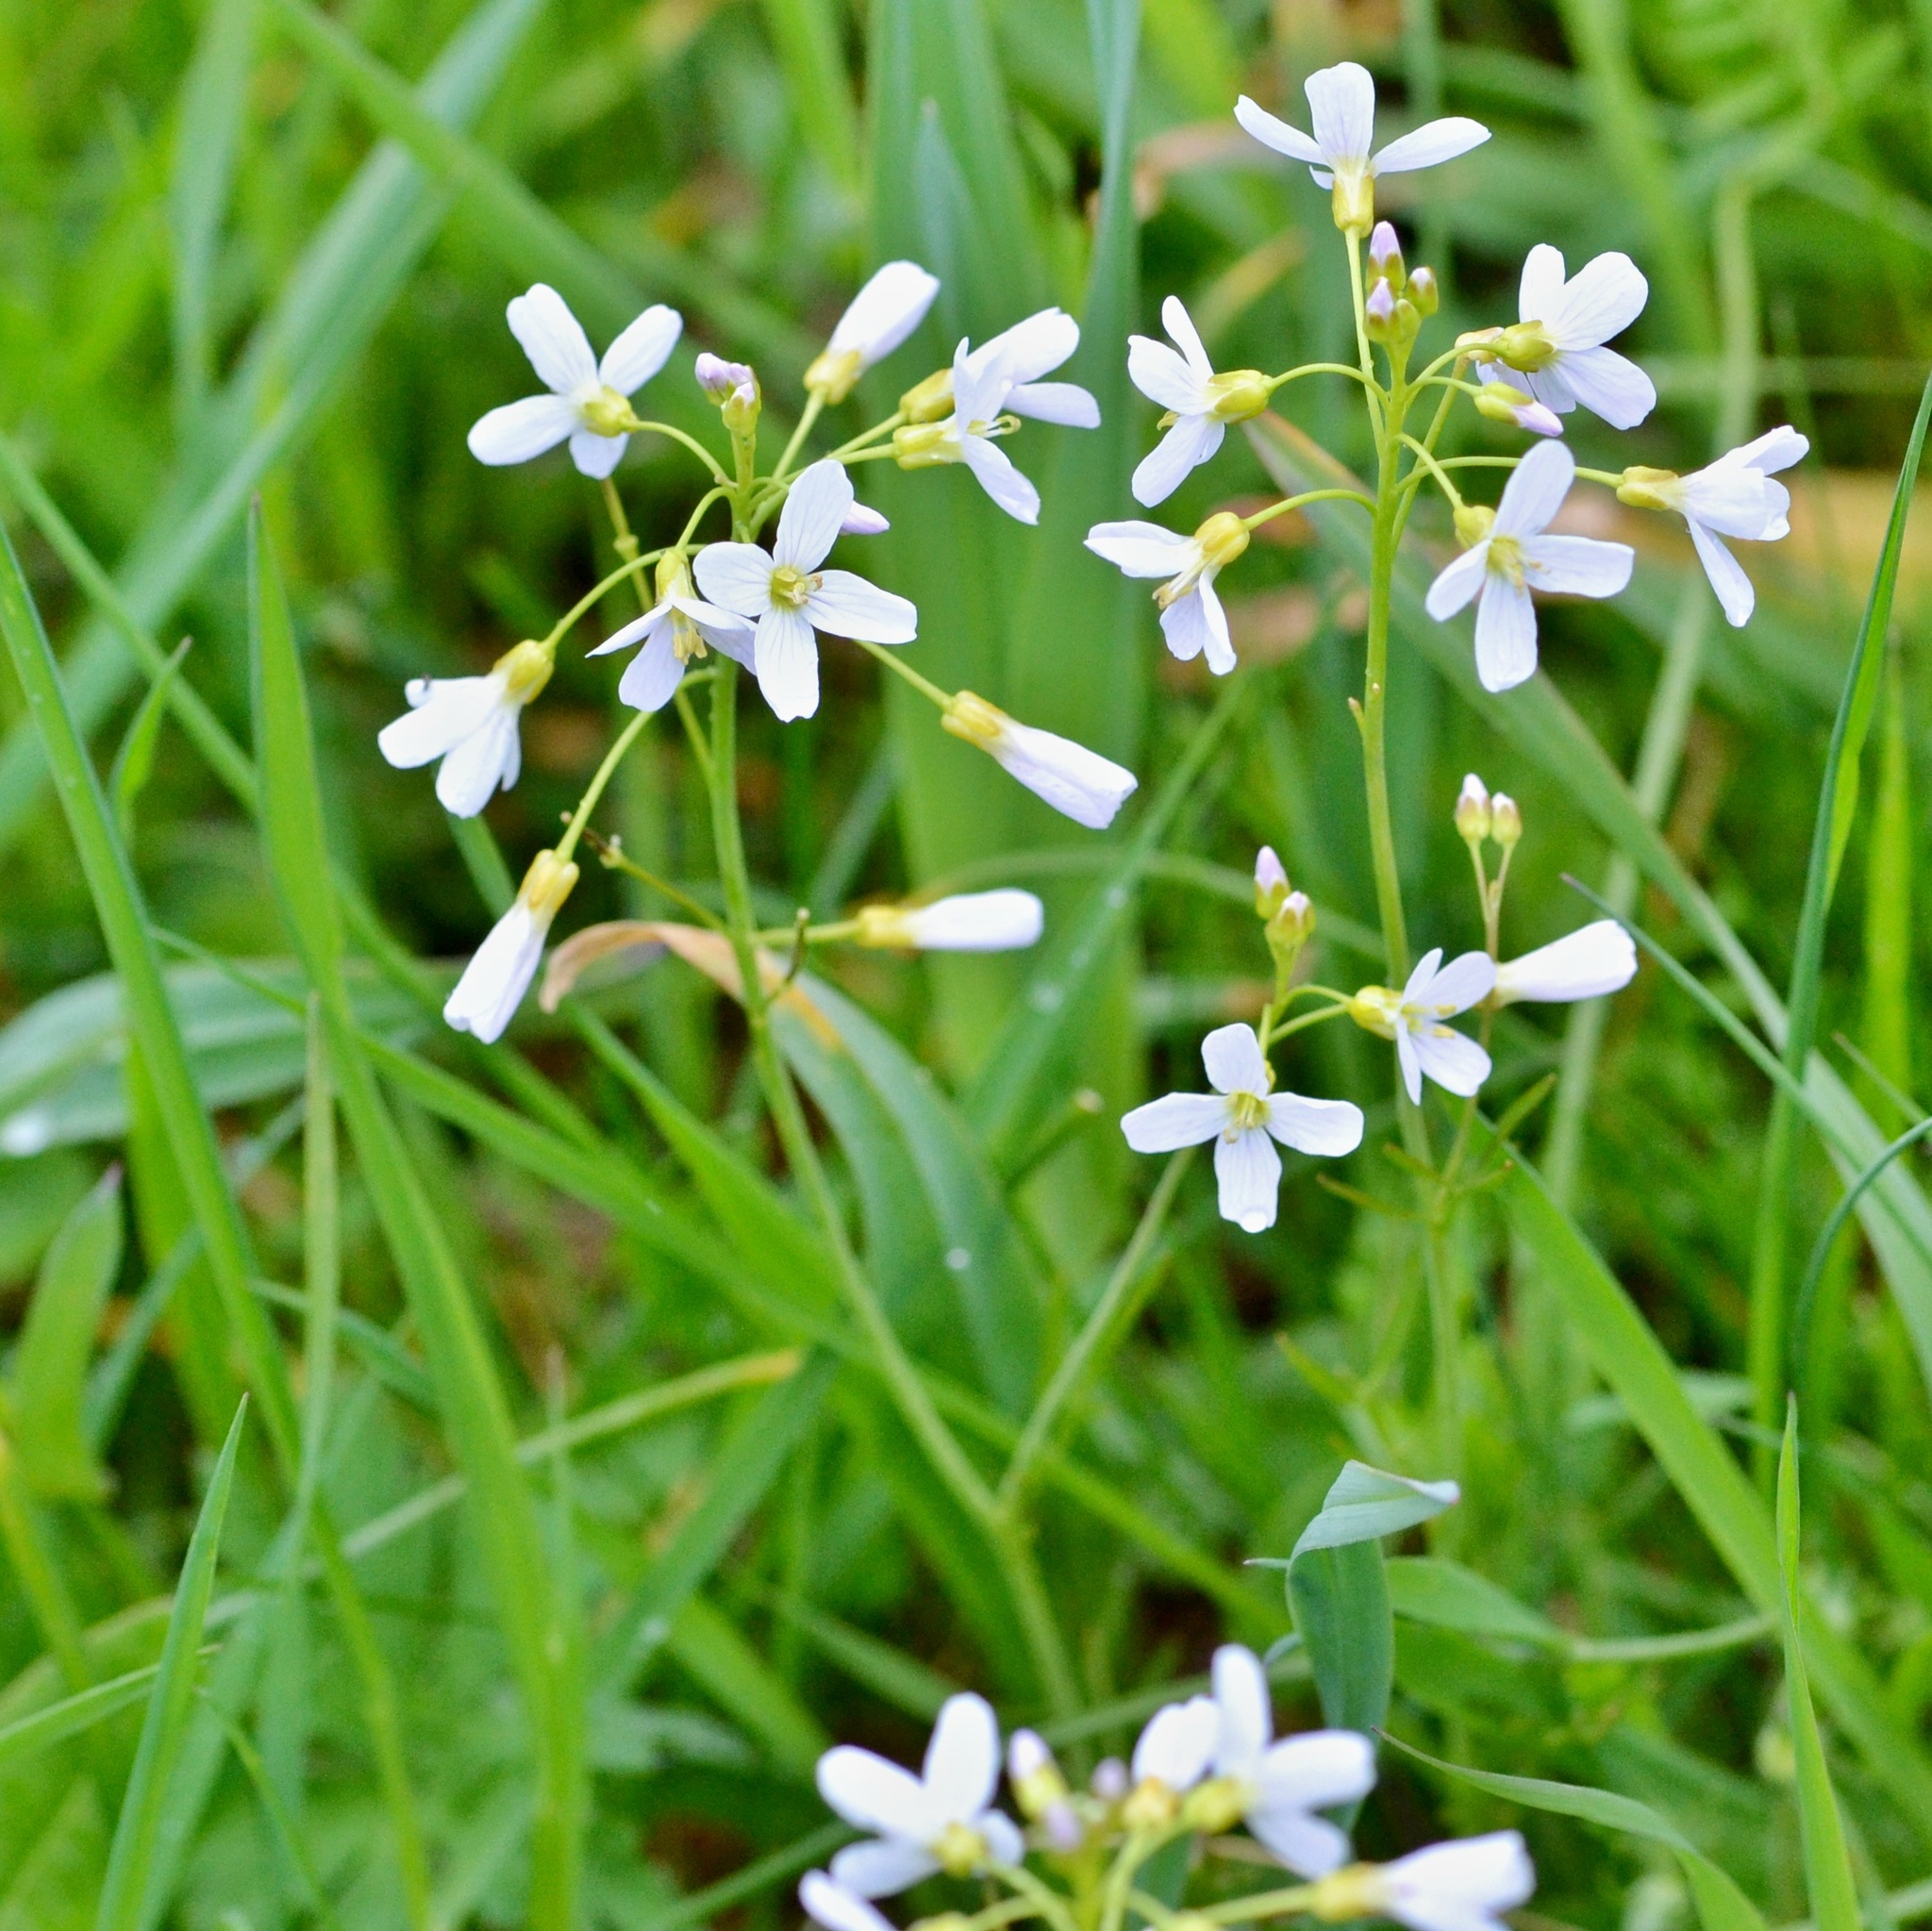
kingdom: Plantae
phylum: Tracheophyta
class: Magnoliopsida
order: Brassicales
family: Brassicaceae
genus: Cardamine
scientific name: Cardamine pratensis
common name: Cuckoo flower
